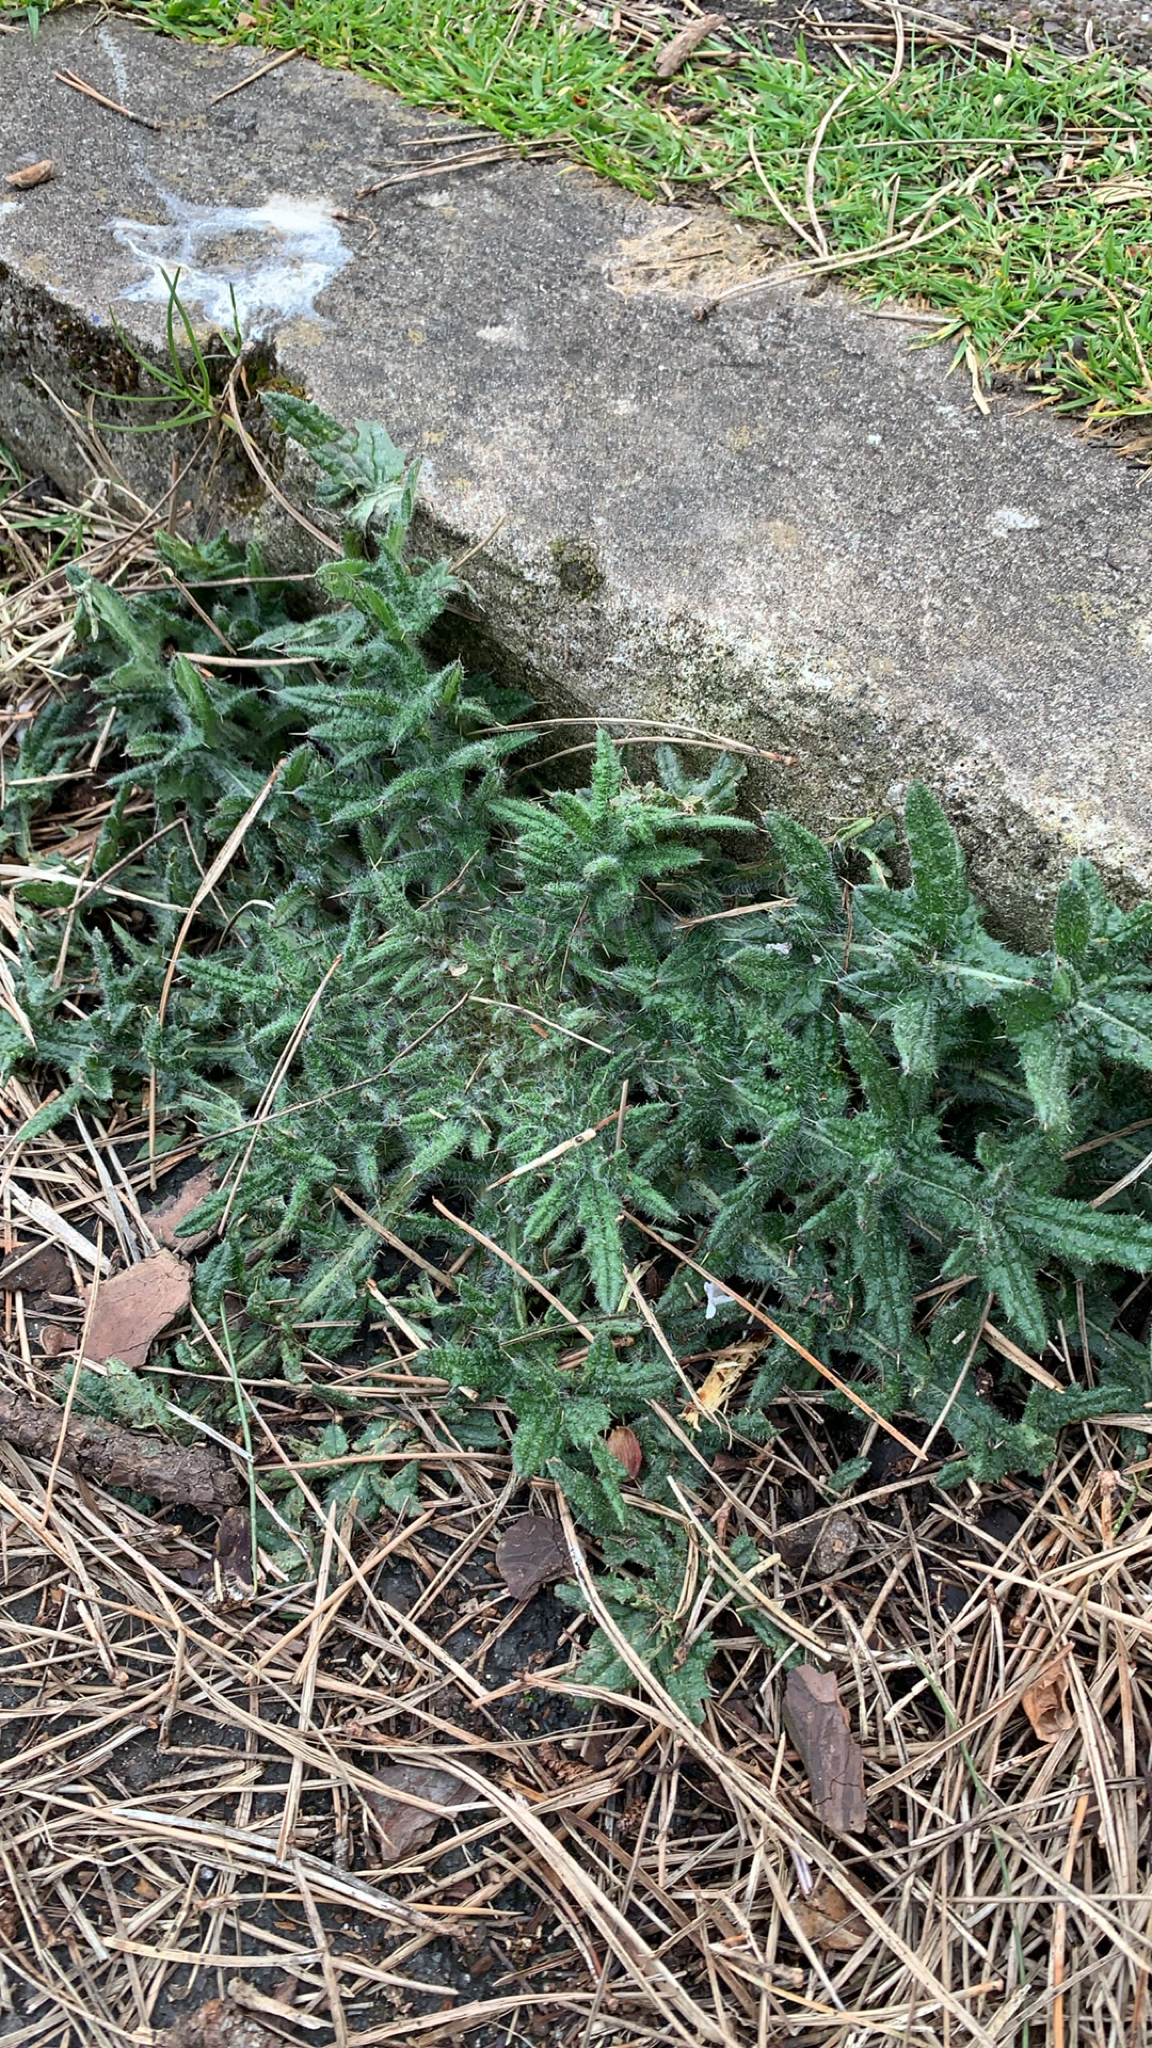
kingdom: Plantae
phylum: Tracheophyta
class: Magnoliopsida
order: Asterales
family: Asteraceae
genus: Cirsium
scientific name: Cirsium vulgare
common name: Bull thistle
